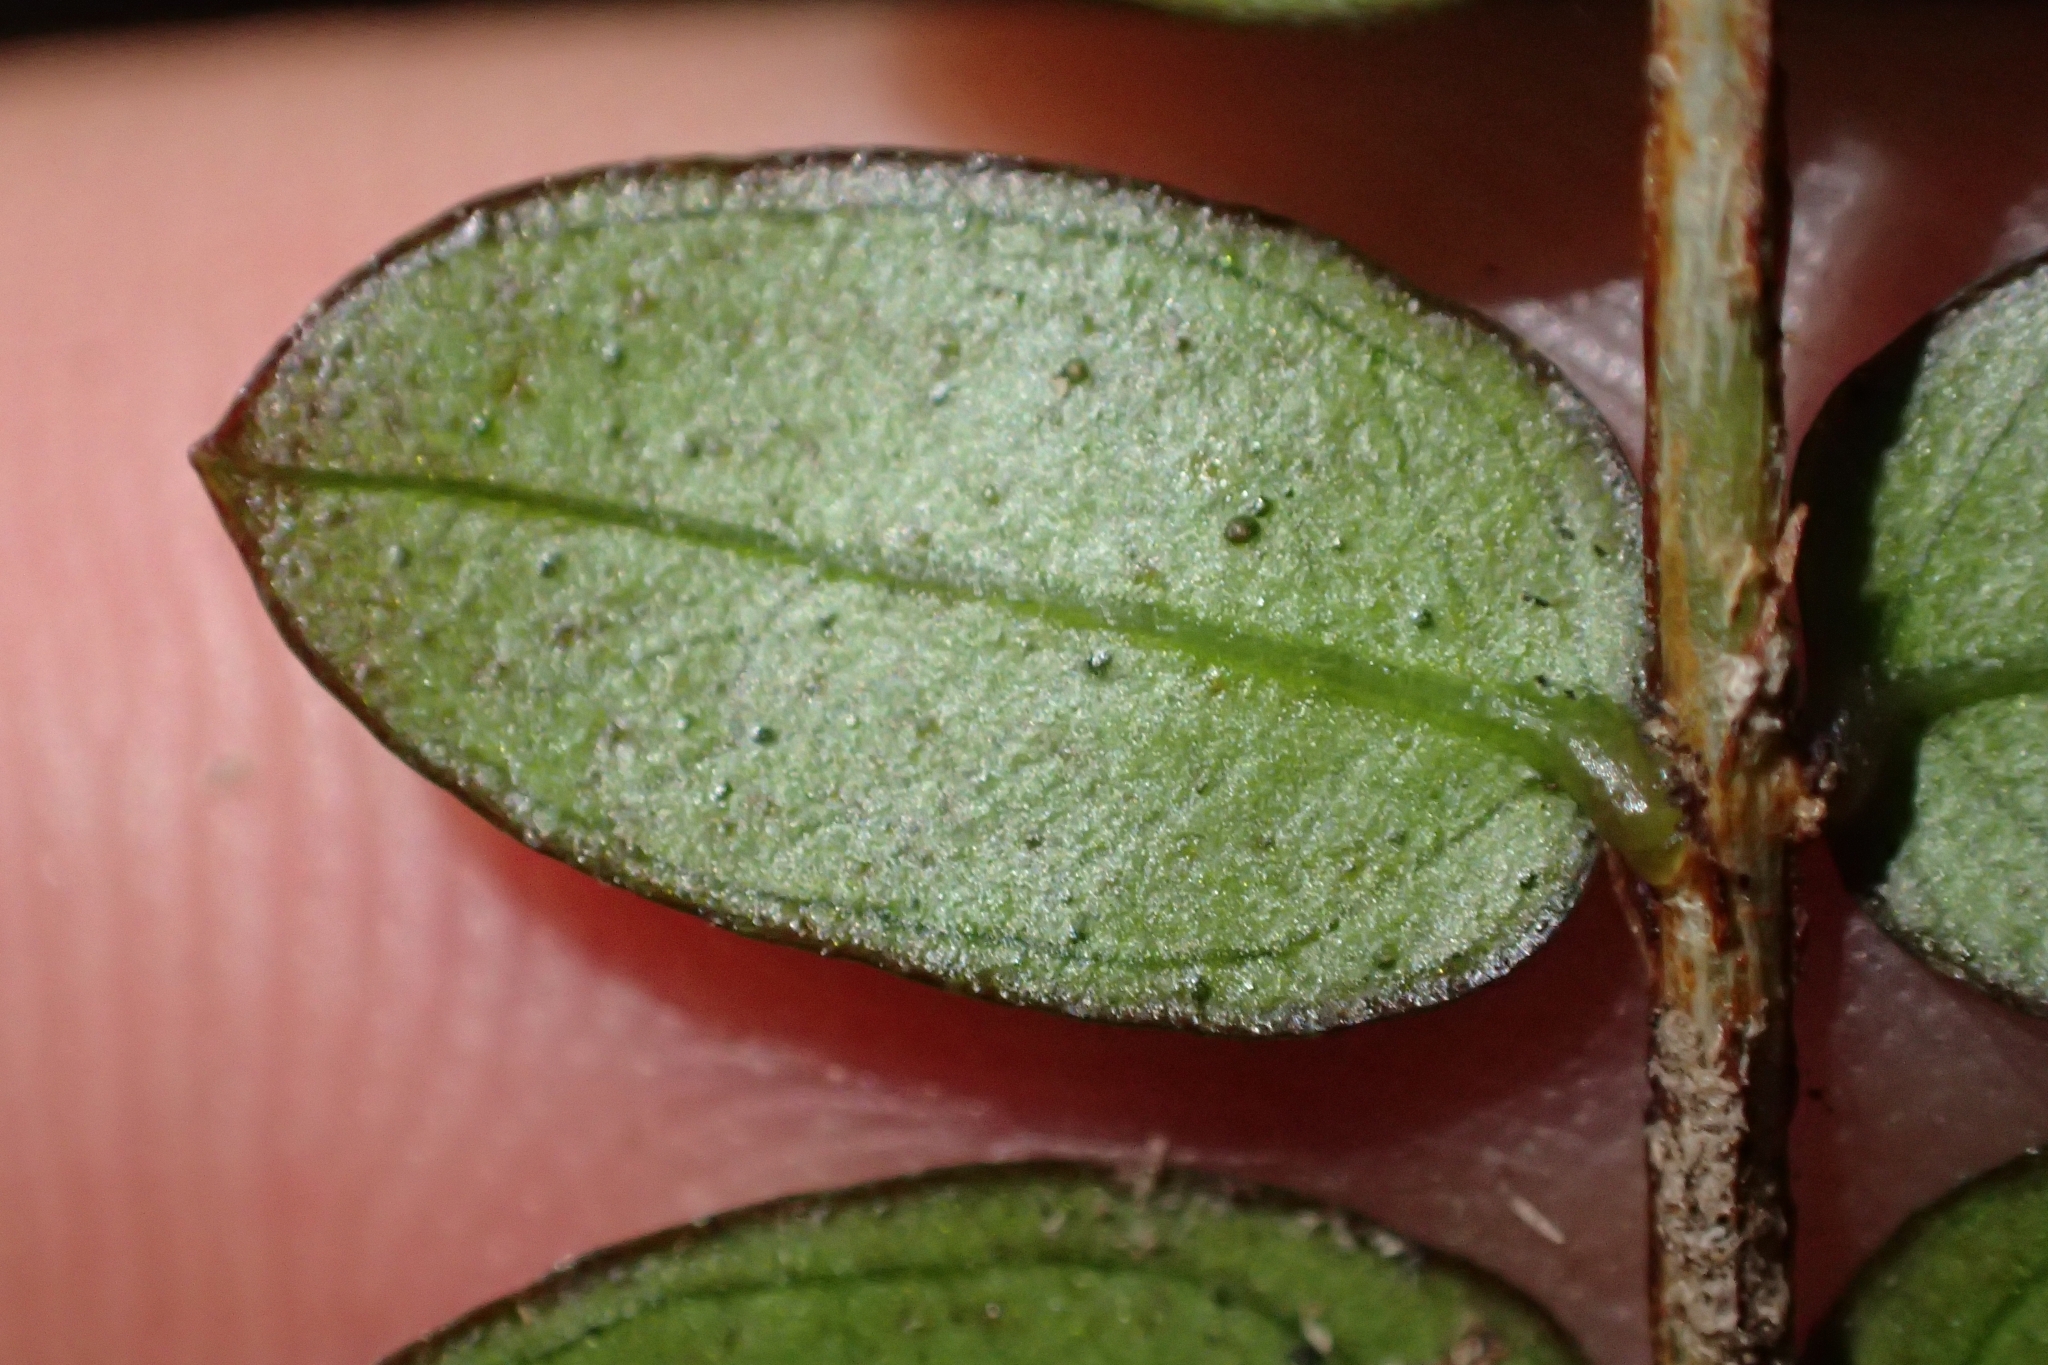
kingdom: Plantae
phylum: Tracheophyta
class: Magnoliopsida
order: Myrtales
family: Myrtaceae
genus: Metrosideros
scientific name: Metrosideros diffusa
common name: Small ratavine
